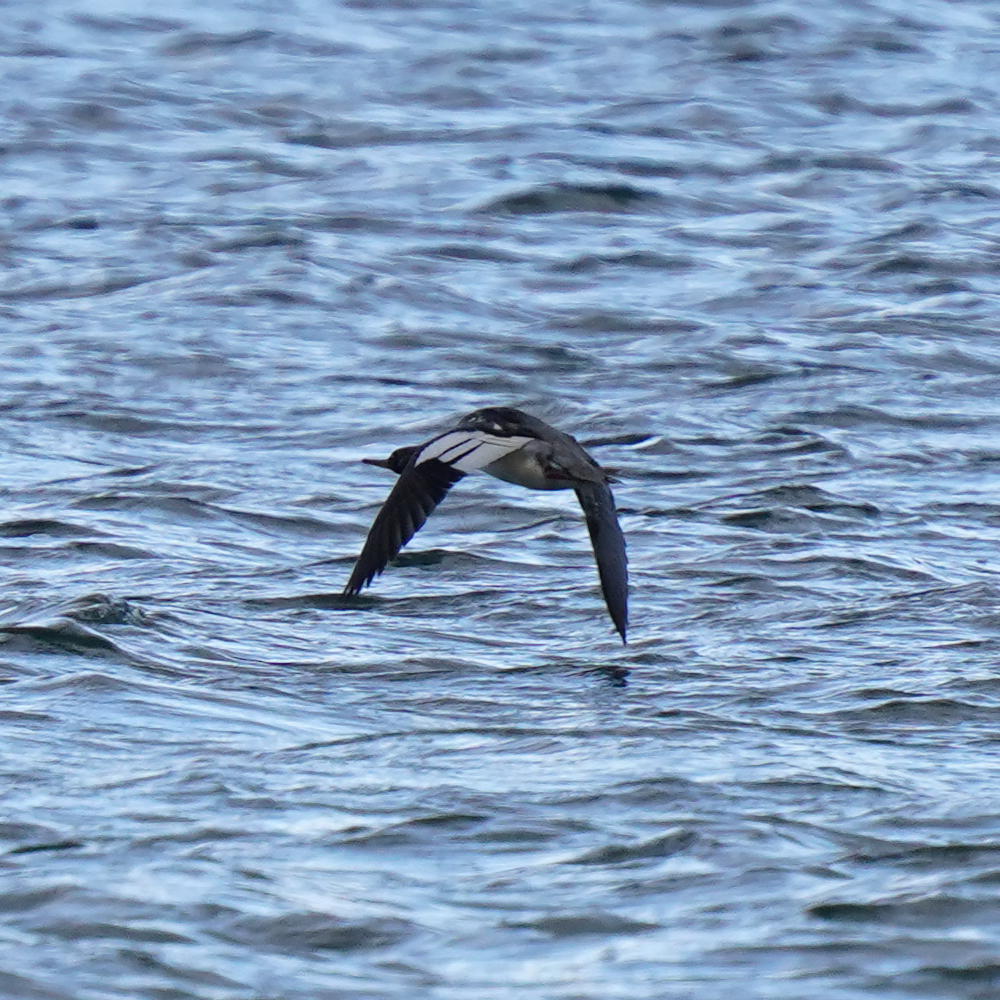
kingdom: Animalia
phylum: Chordata
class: Aves
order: Anseriformes
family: Anatidae
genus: Mergus
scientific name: Mergus serrator
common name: Red-breasted merganser
